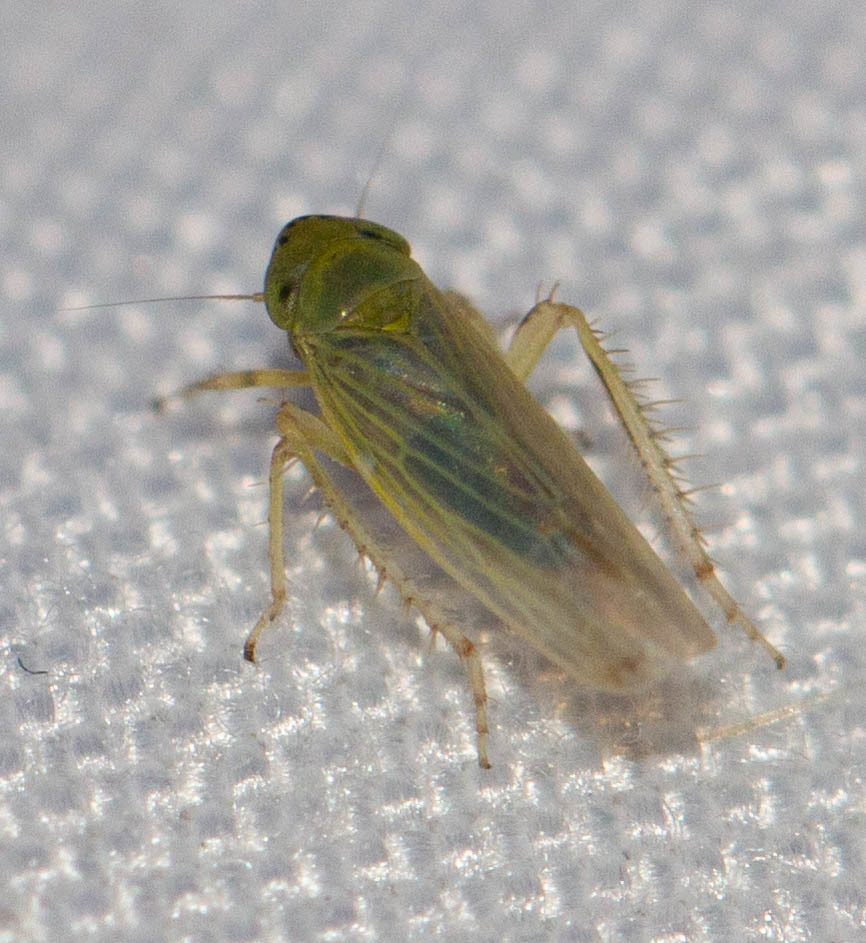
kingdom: Animalia
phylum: Arthropoda
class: Insecta
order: Hemiptera
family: Cicadellidae
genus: Graminella
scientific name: Graminella nigrifrons
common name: Blackfaced leafhopper
